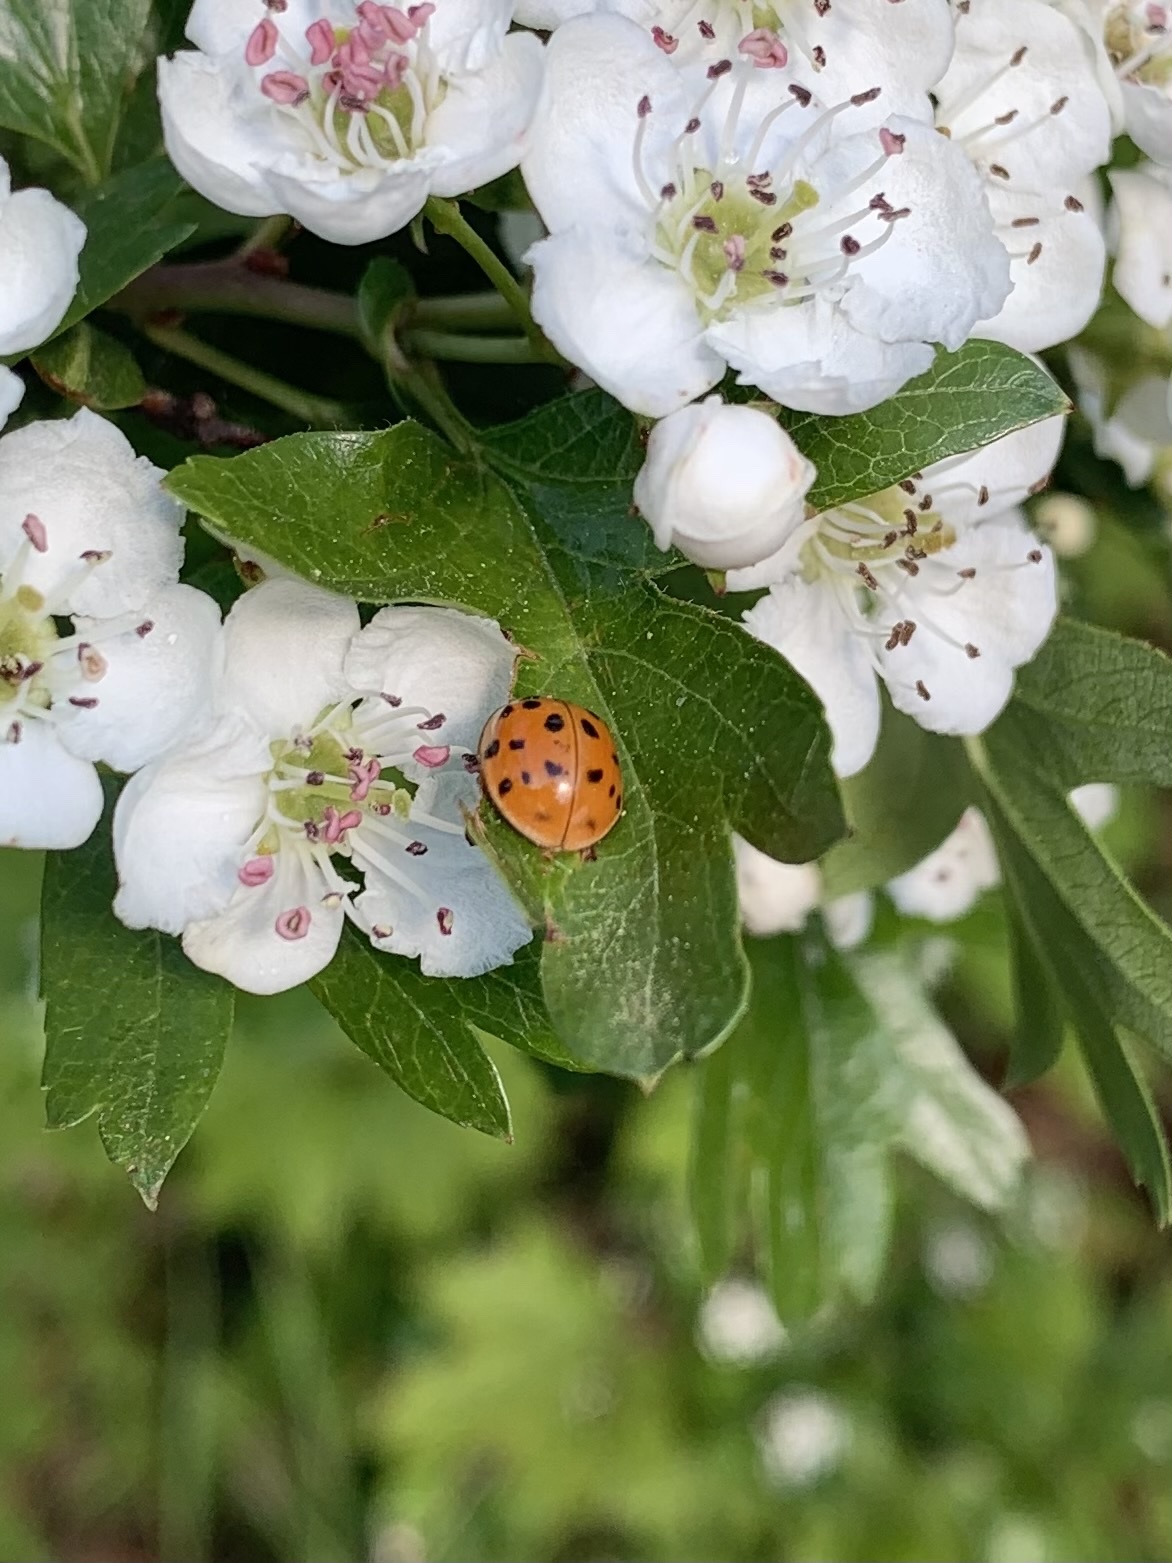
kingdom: Animalia
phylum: Arthropoda
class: Insecta
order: Coleoptera
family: Coccinellidae
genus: Harmonia
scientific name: Harmonia axyridis
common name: Harlequin ladybird
